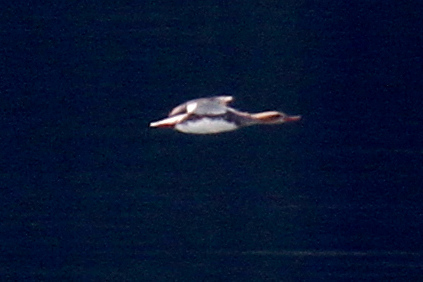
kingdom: Animalia
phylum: Chordata
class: Aves
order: Anseriformes
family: Anatidae
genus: Mergus
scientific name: Mergus serrator
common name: Red-breasted merganser
